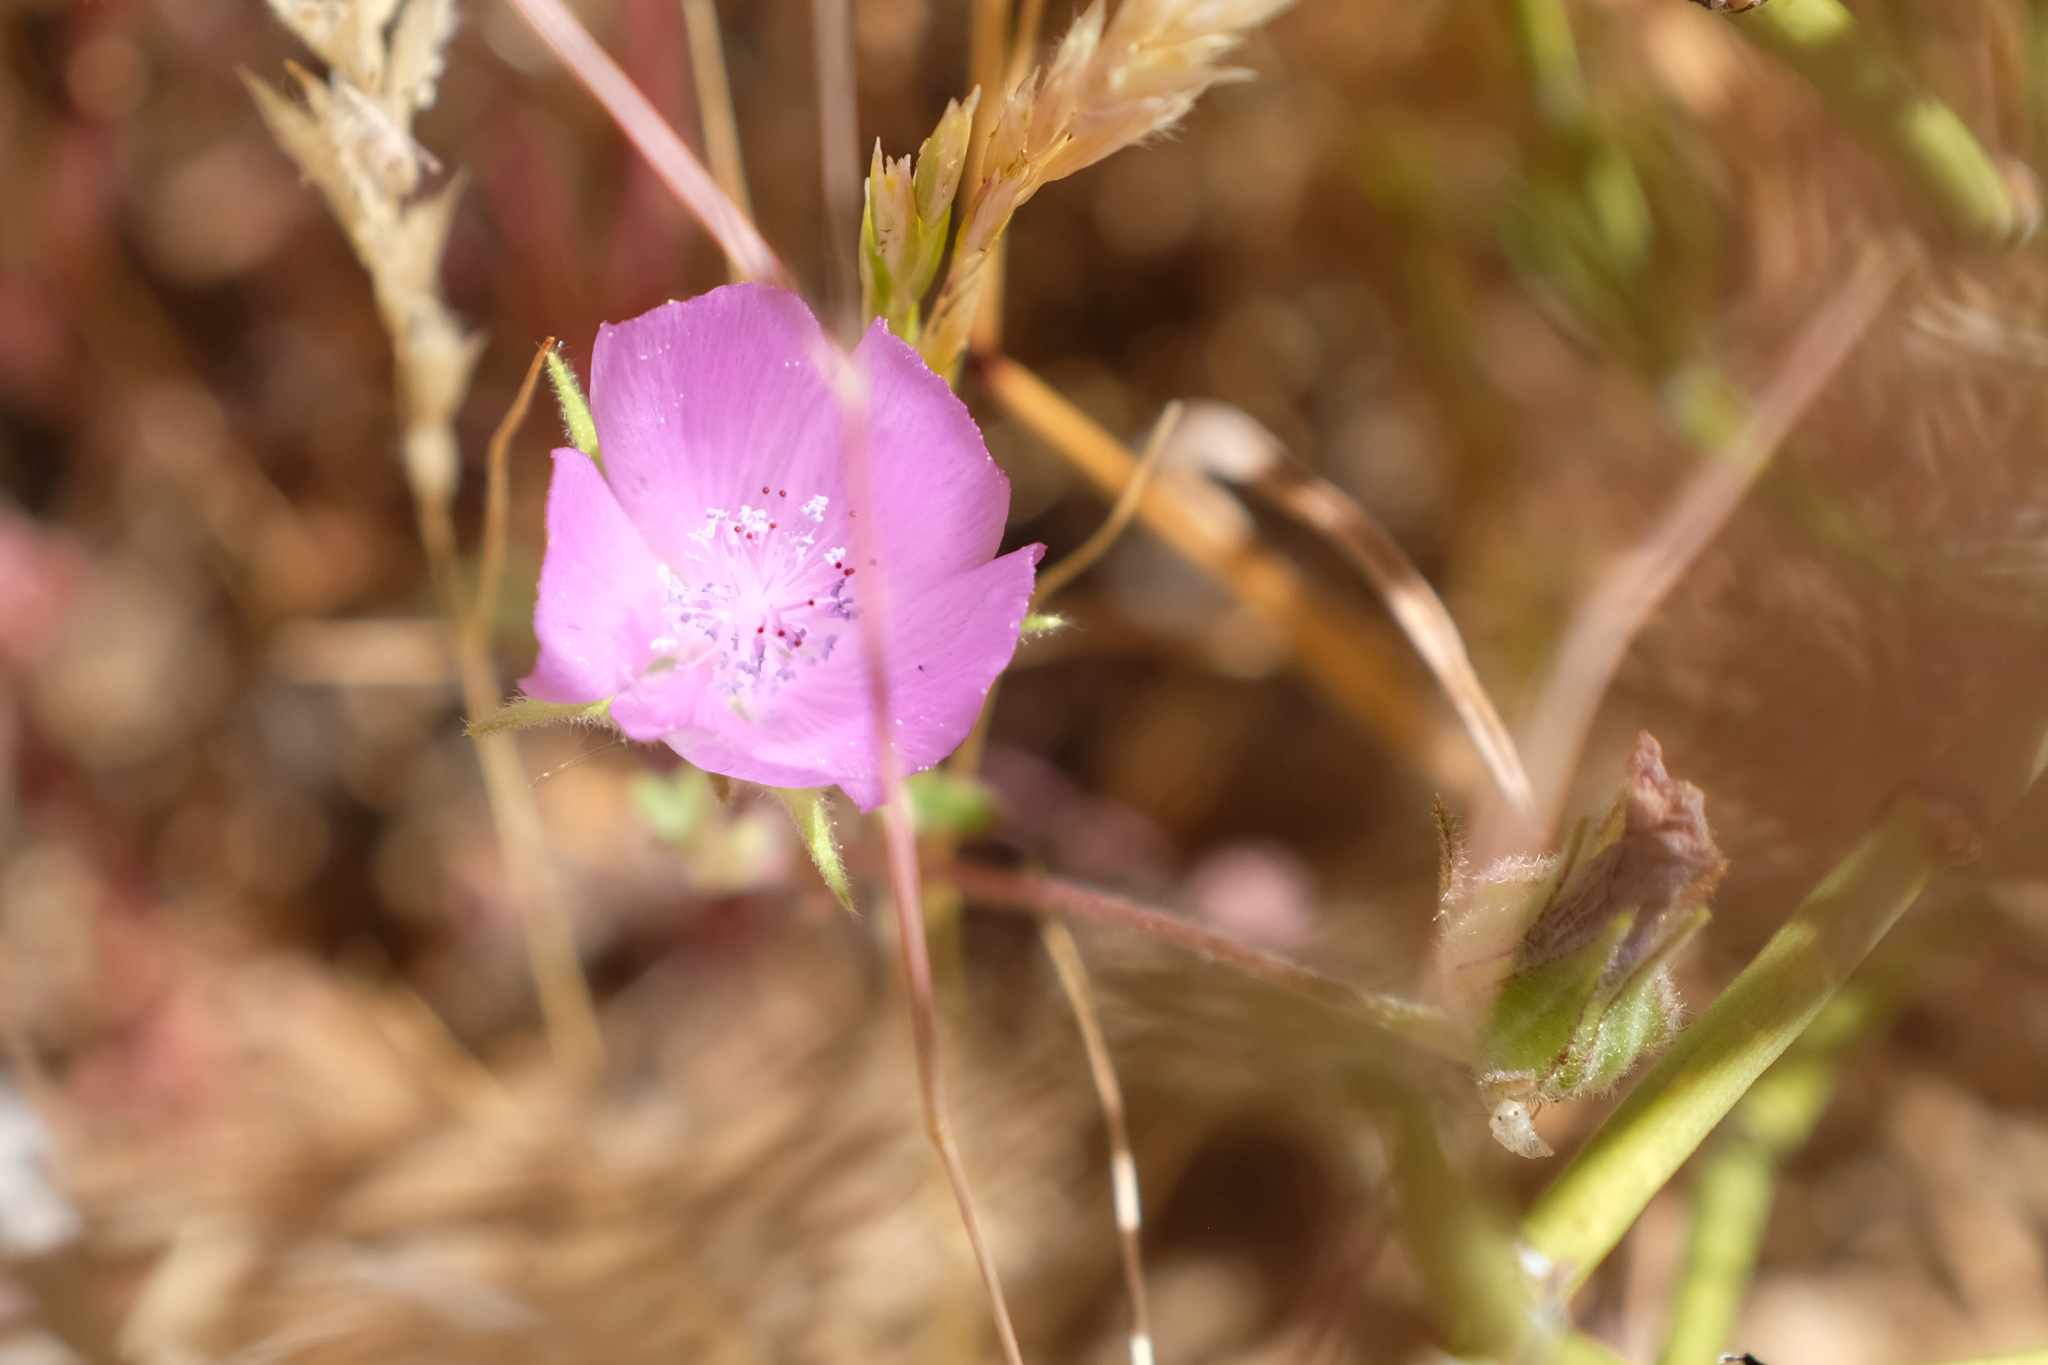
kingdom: Plantae
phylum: Tracheophyta
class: Magnoliopsida
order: Malvales
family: Malvaceae
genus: Eremalche
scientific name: Eremalche parryi
